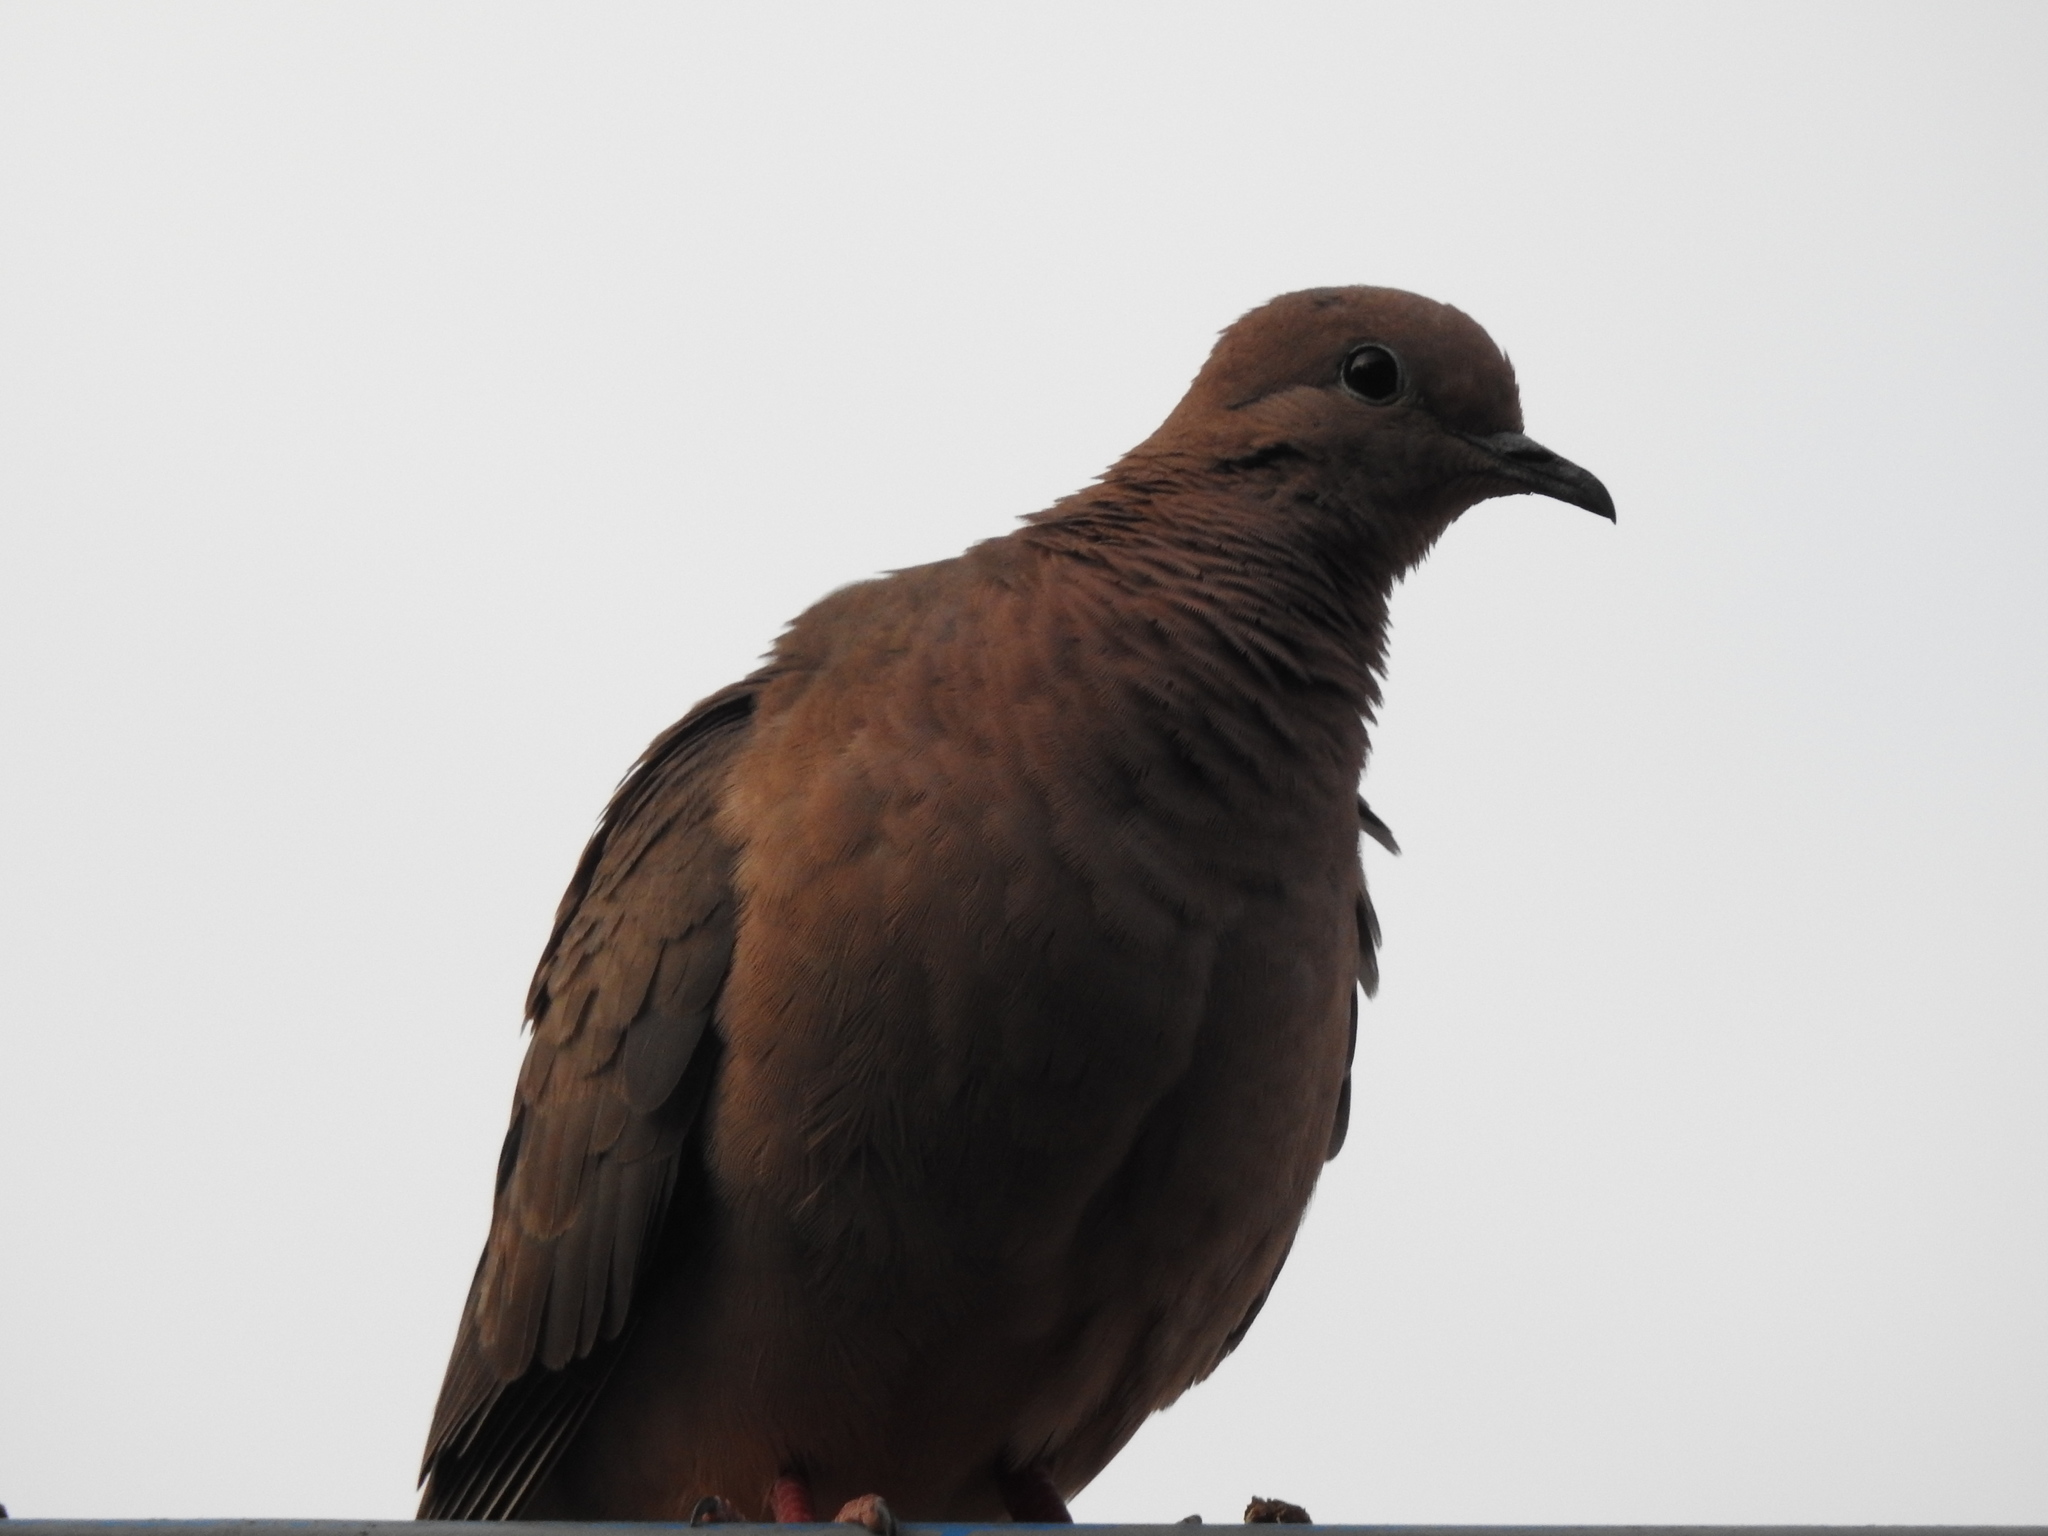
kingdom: Animalia
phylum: Chordata
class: Aves
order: Columbiformes
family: Columbidae
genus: Zenaida
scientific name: Zenaida auriculata
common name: Eared dove
